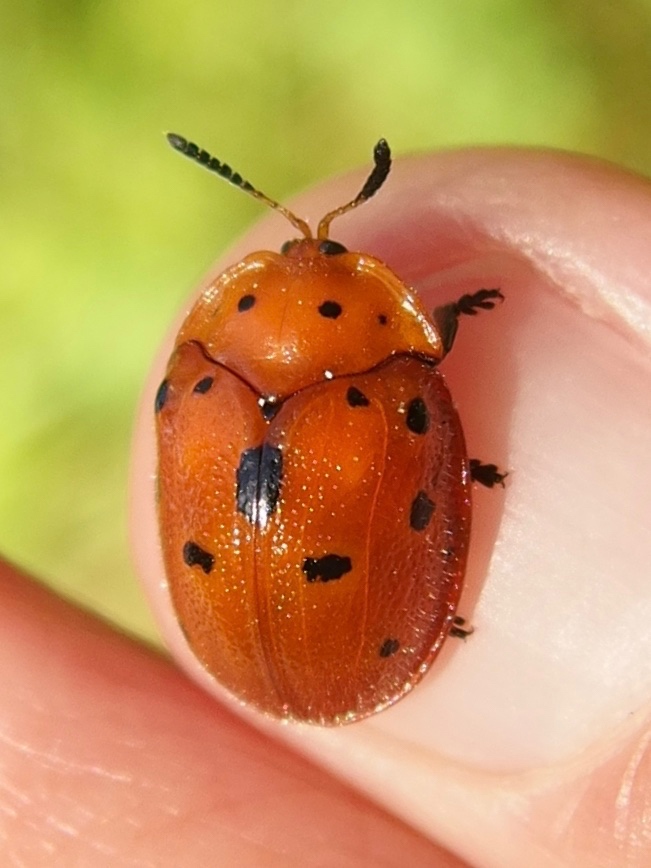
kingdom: Animalia
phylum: Arthropoda
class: Insecta
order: Coleoptera
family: Chrysomelidae
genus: Chelymorpha
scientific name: Chelymorpha phytophagica
